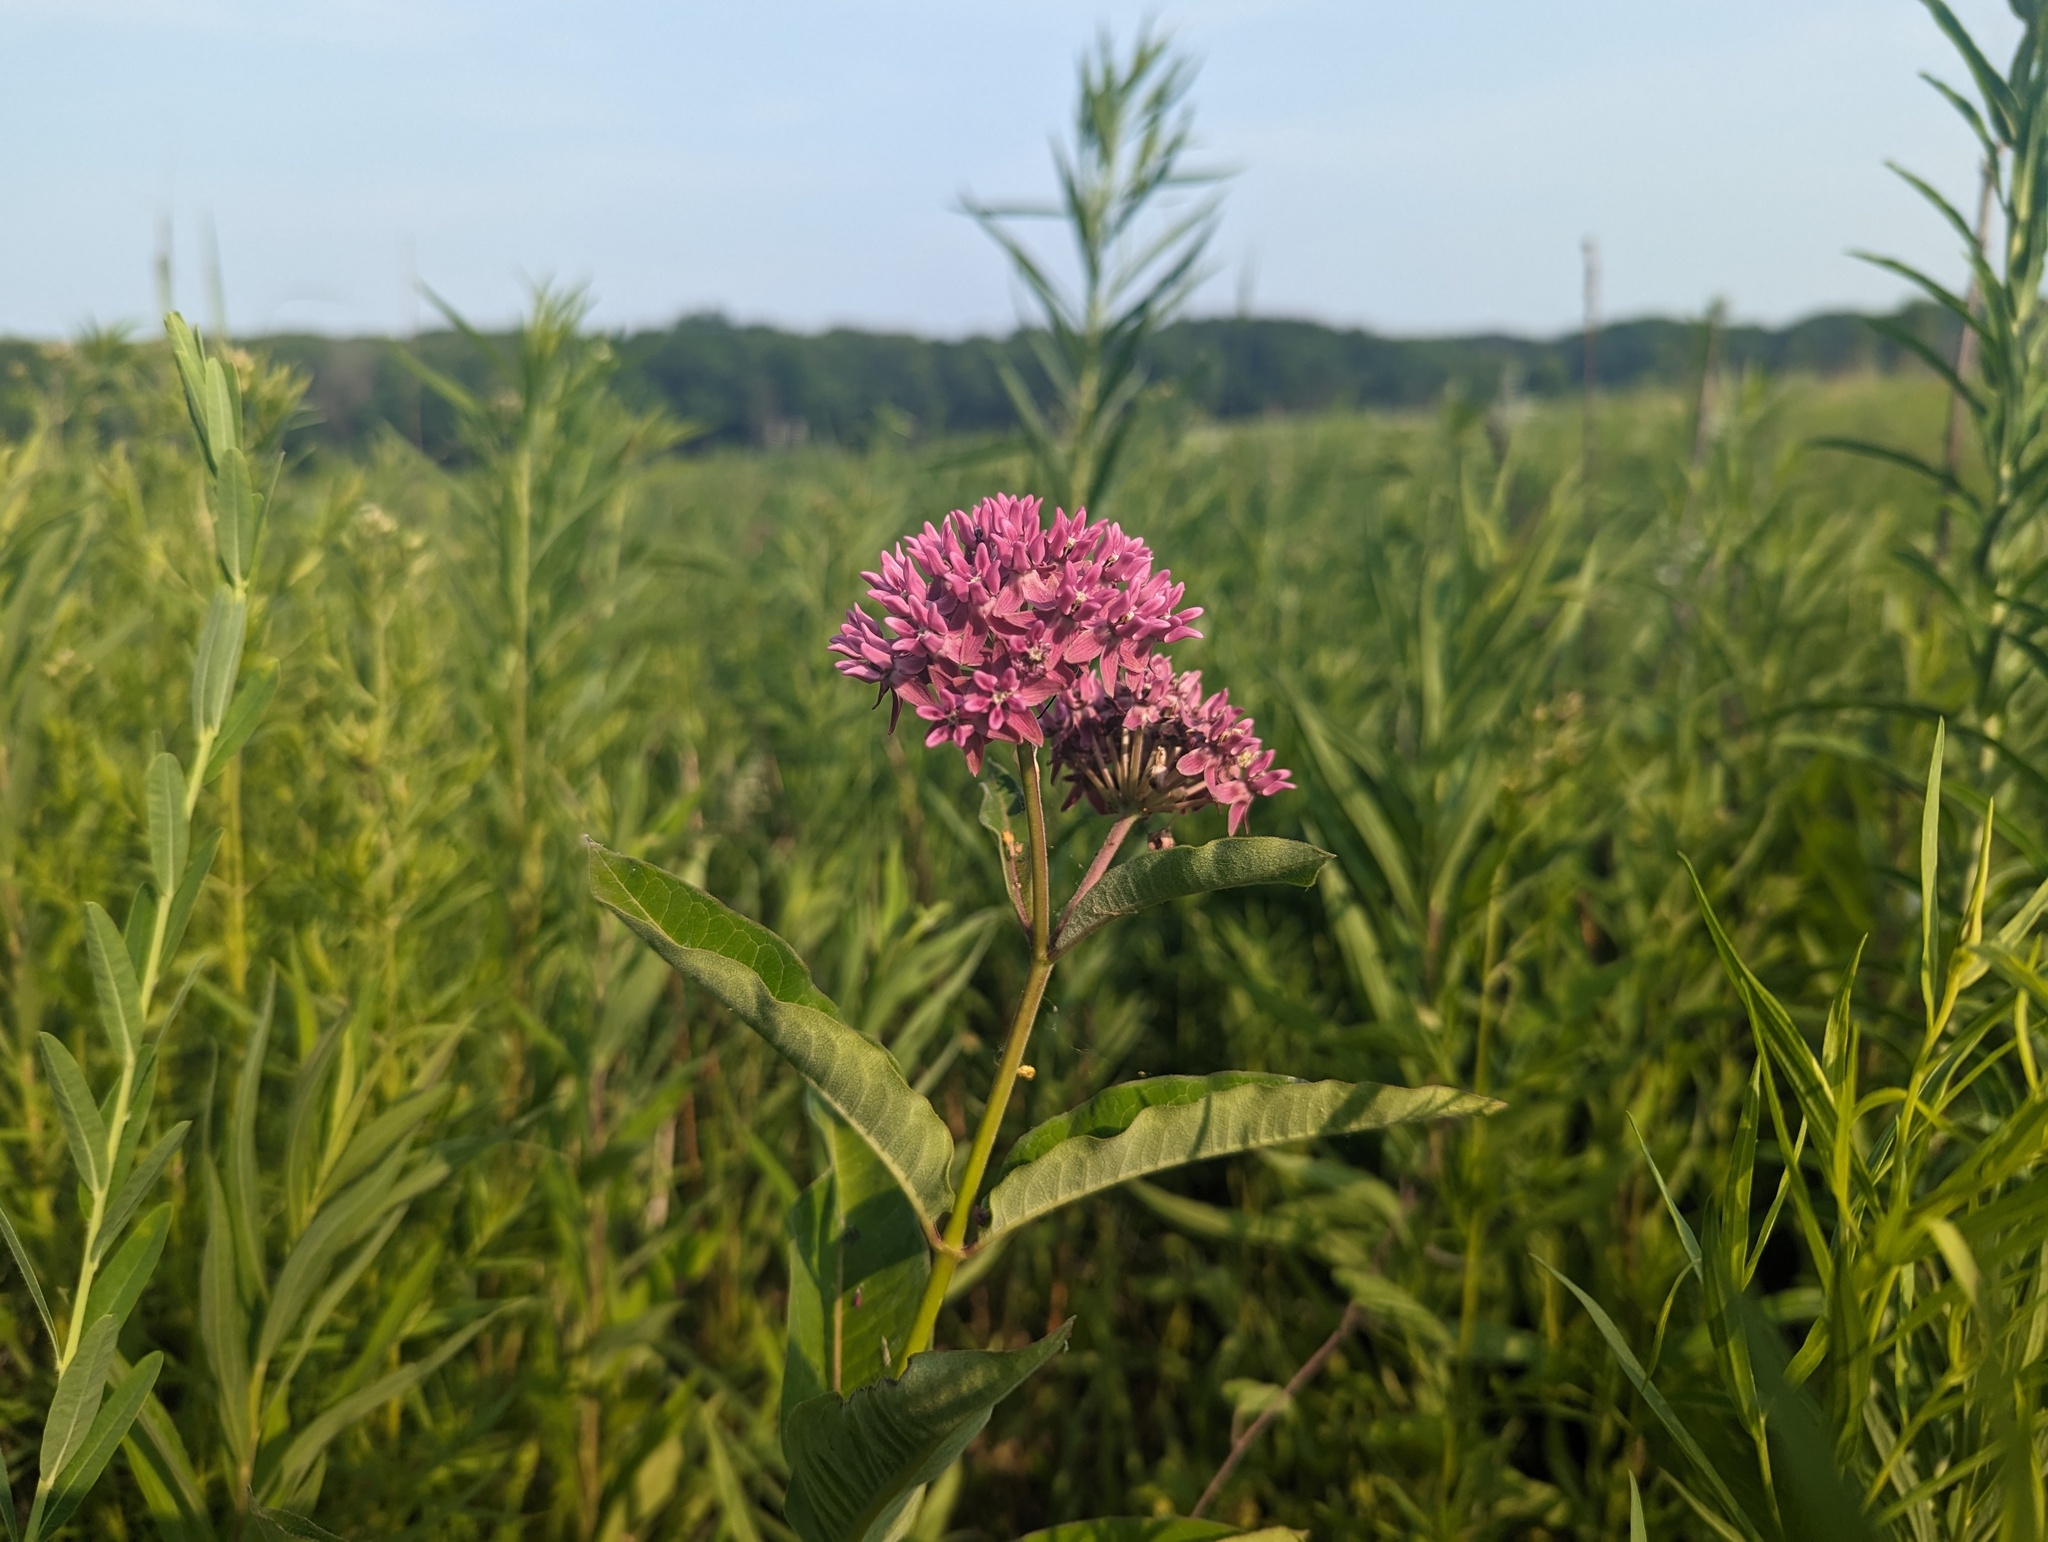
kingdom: Plantae
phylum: Tracheophyta
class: Magnoliopsida
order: Gentianales
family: Apocynaceae
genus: Asclepias
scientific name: Asclepias purpurascens
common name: Purple milkweed
